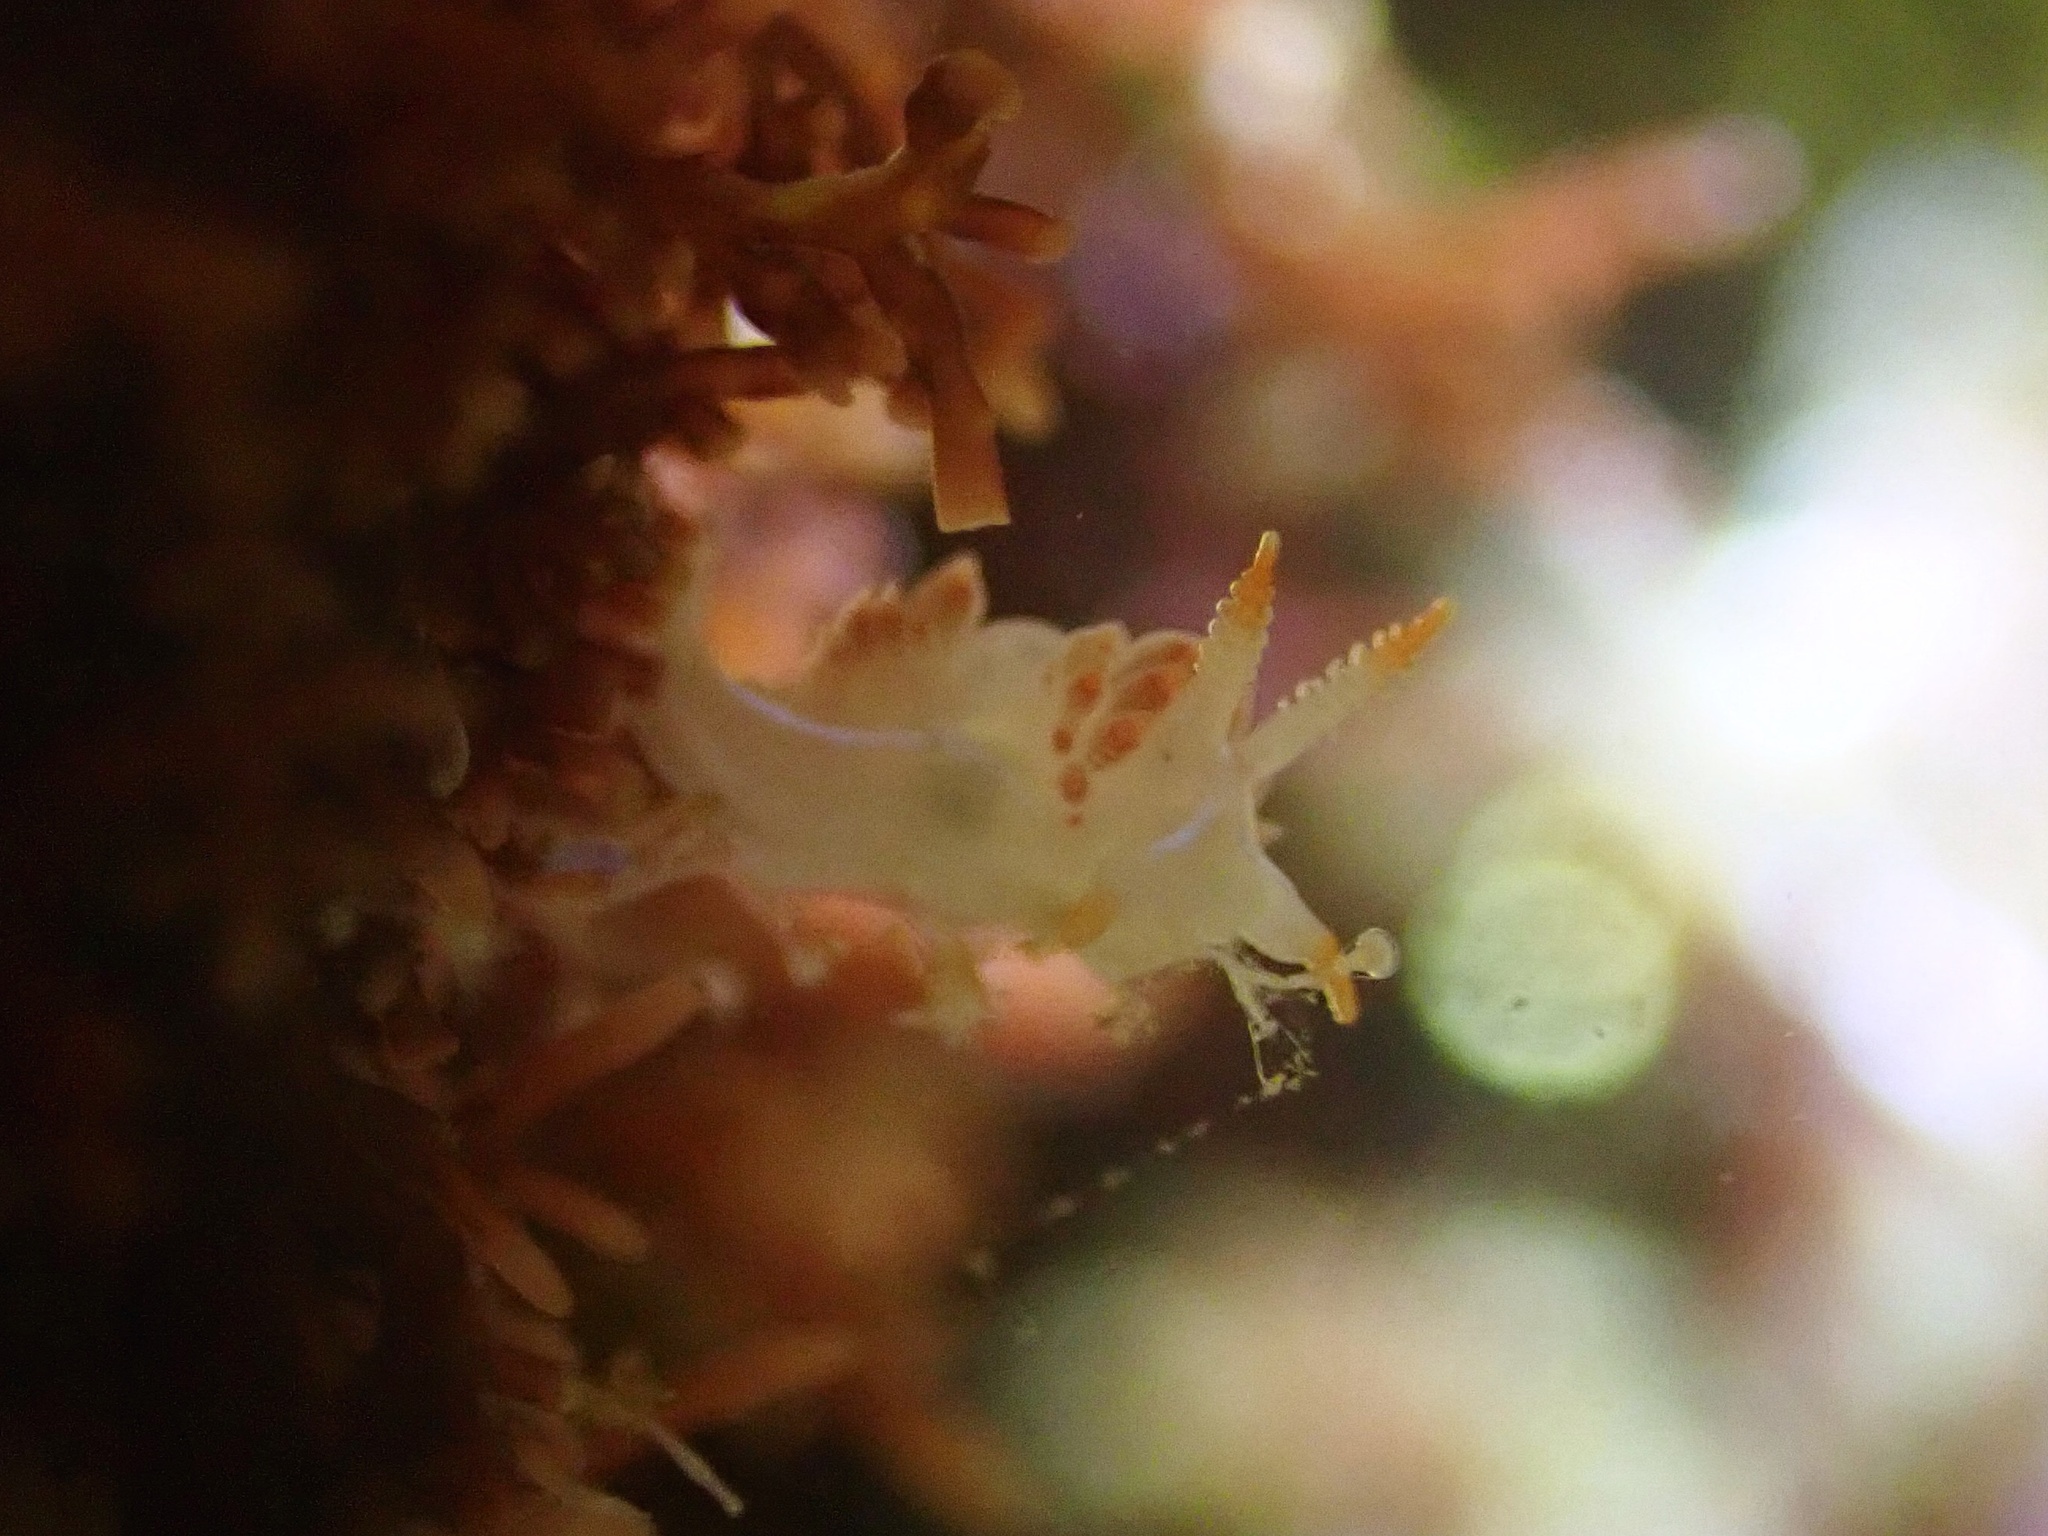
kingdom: Animalia
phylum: Mollusca
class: Gastropoda
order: Nudibranchia
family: Coryphellidae
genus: Coryphella
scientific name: Coryphella trilineata
